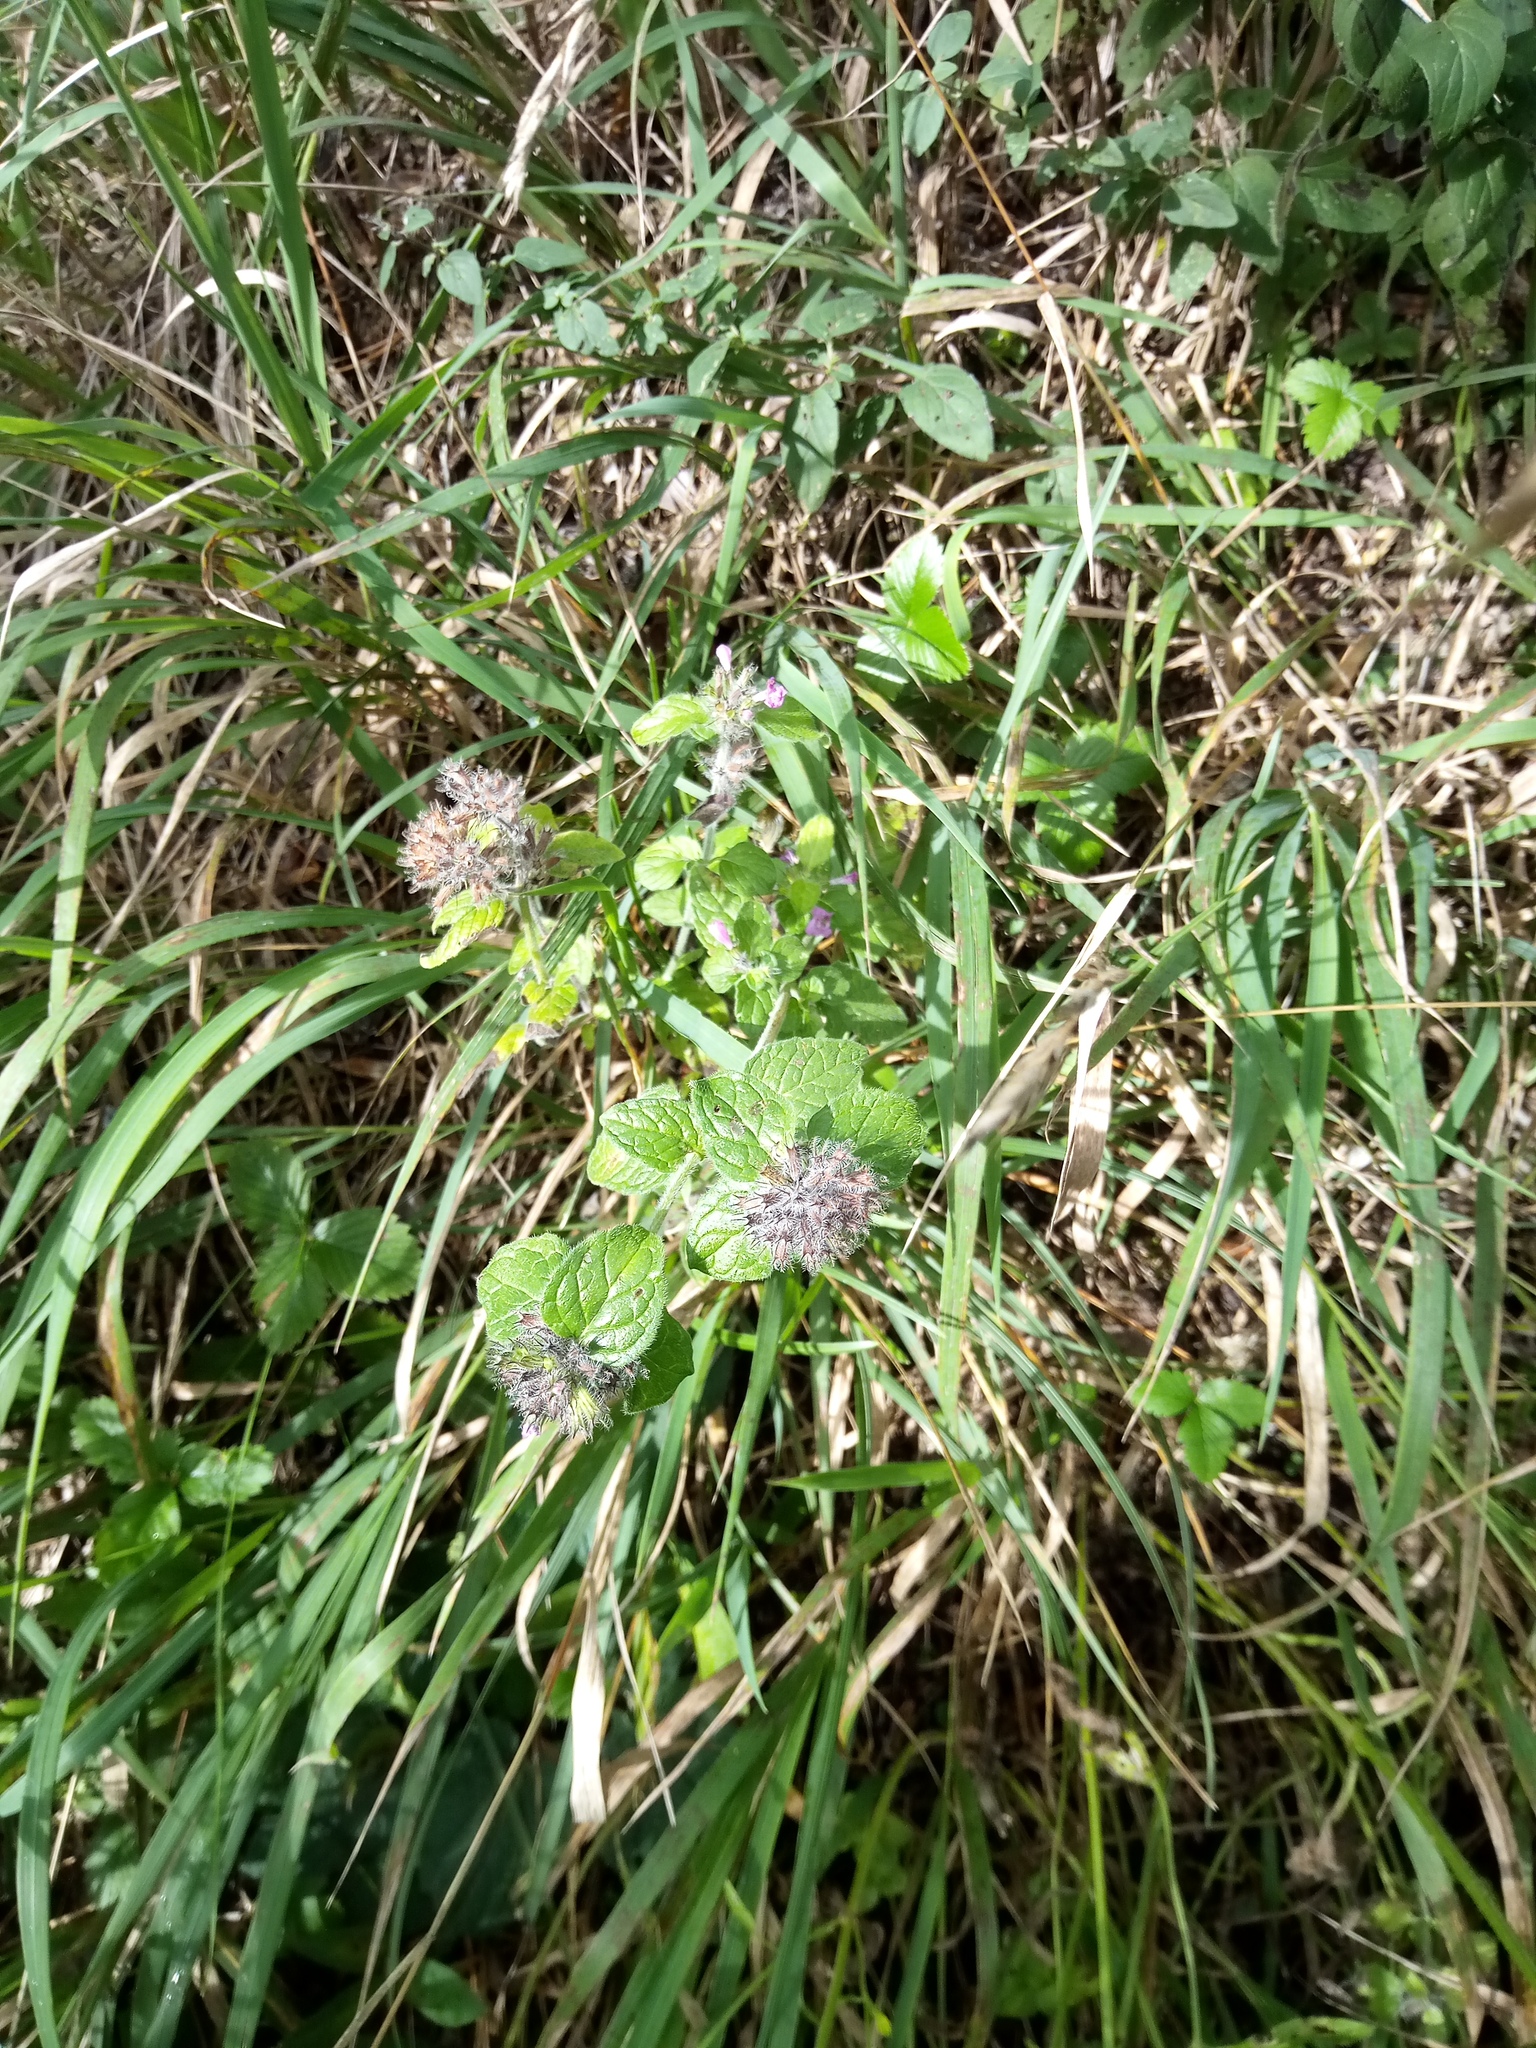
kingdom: Plantae
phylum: Tracheophyta
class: Magnoliopsida
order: Lamiales
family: Lamiaceae
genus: Clinopodium
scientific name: Clinopodium vulgare
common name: Wild basil
